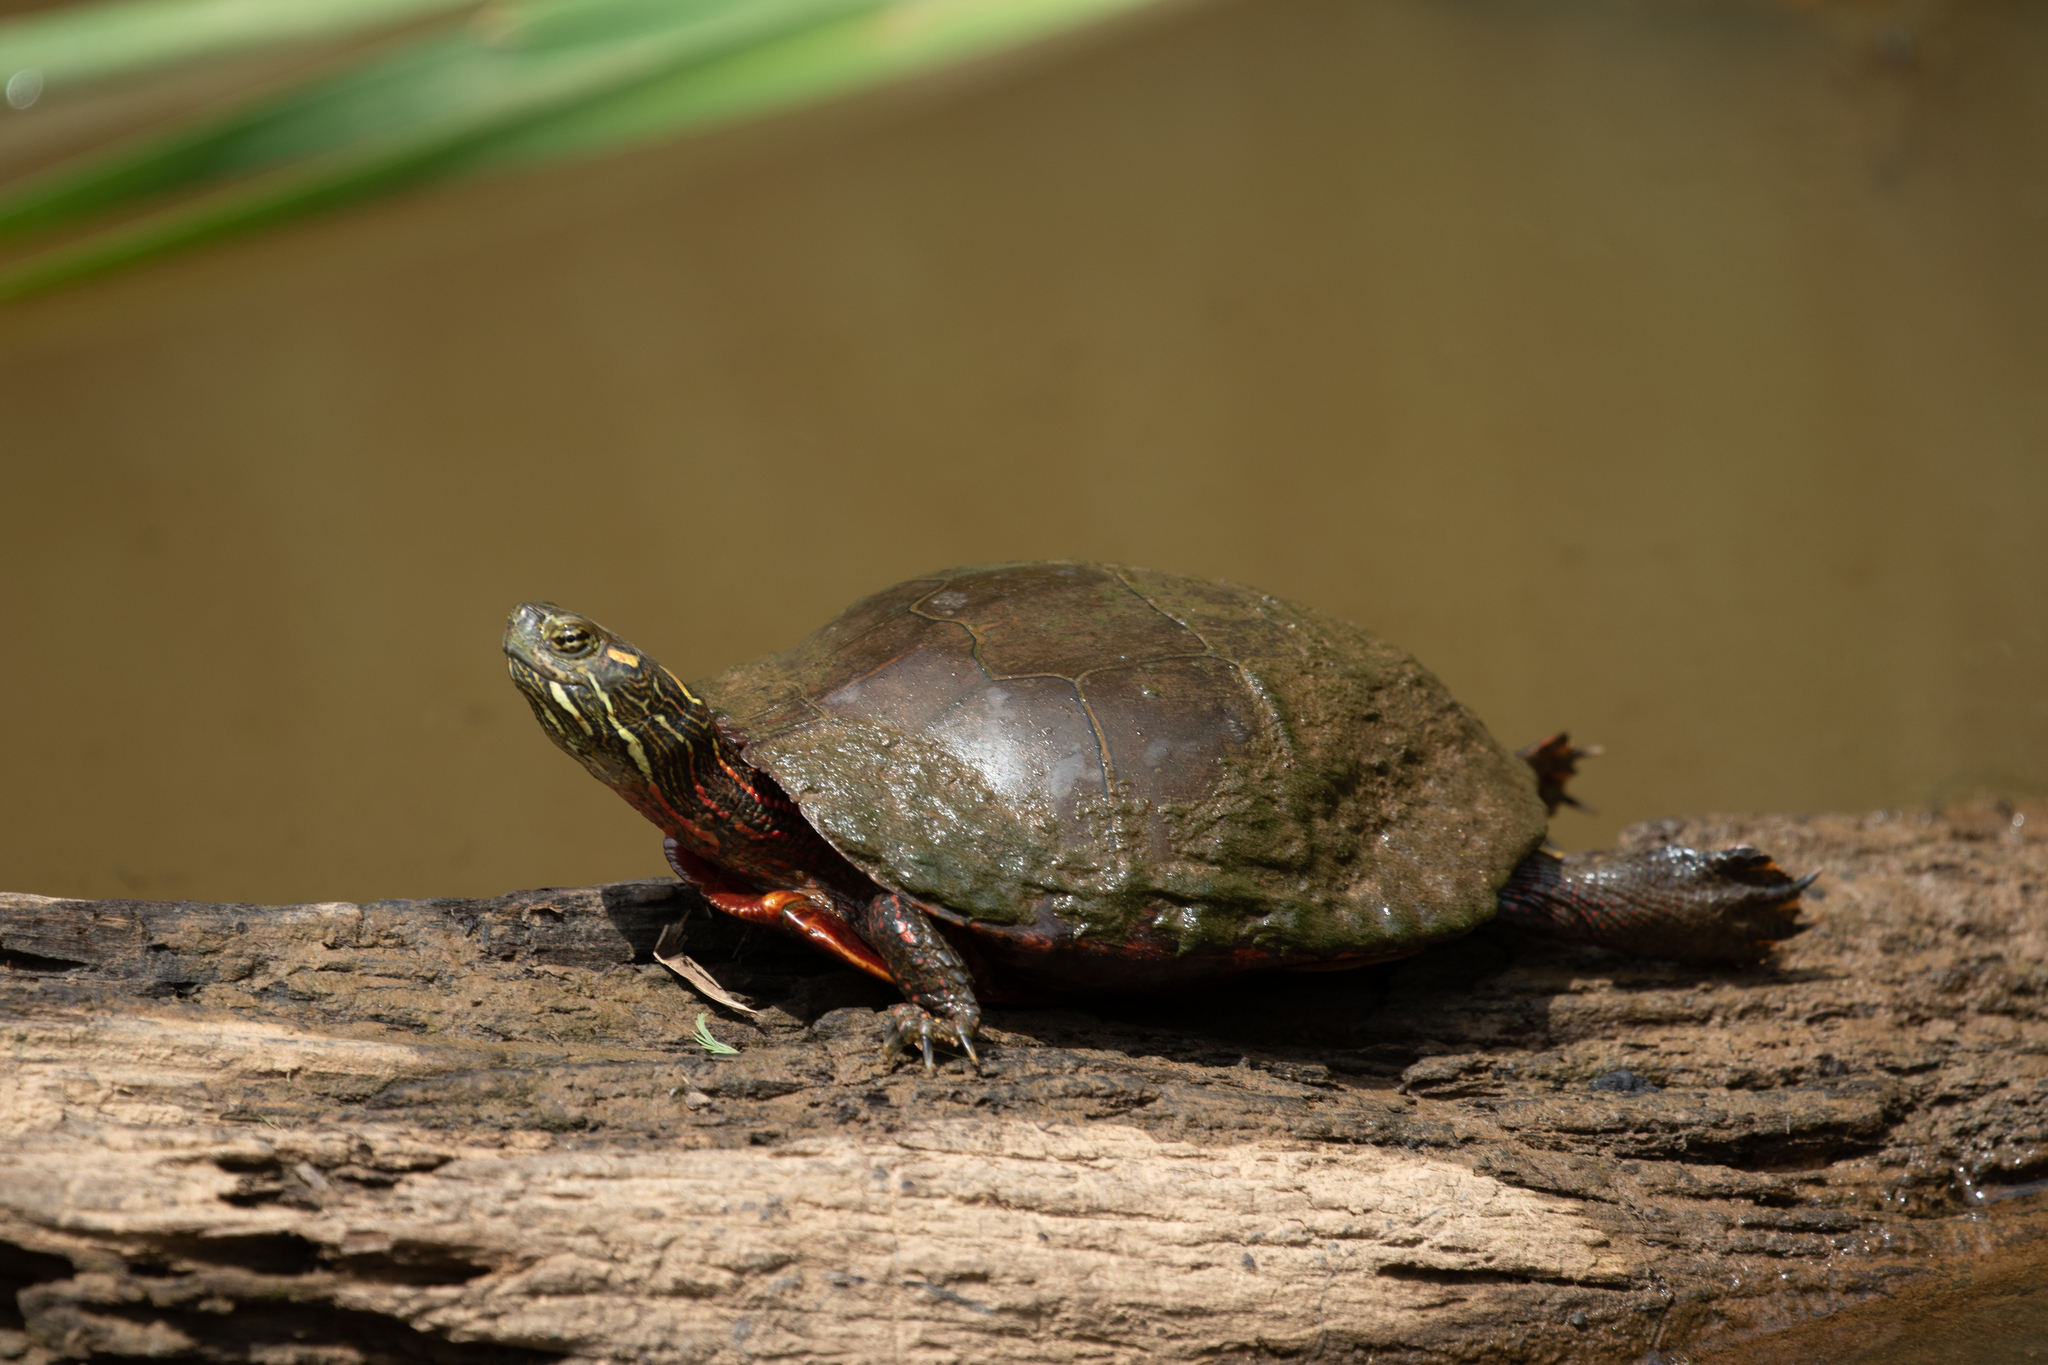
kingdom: Animalia
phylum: Chordata
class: Testudines
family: Emydidae
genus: Chrysemys
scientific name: Chrysemys picta
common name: Painted turtle
